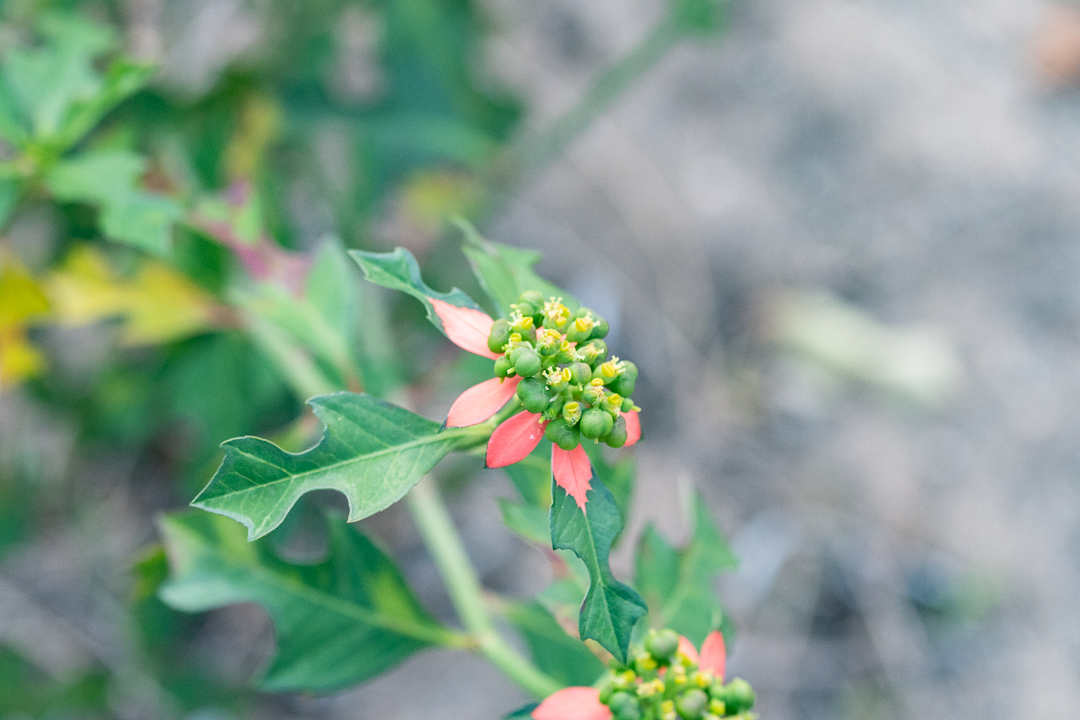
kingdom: Plantae
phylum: Tracheophyta
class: Magnoliopsida
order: Malpighiales
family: Euphorbiaceae
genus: Euphorbia
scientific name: Euphorbia heterophylla
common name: Mexican fireplant
